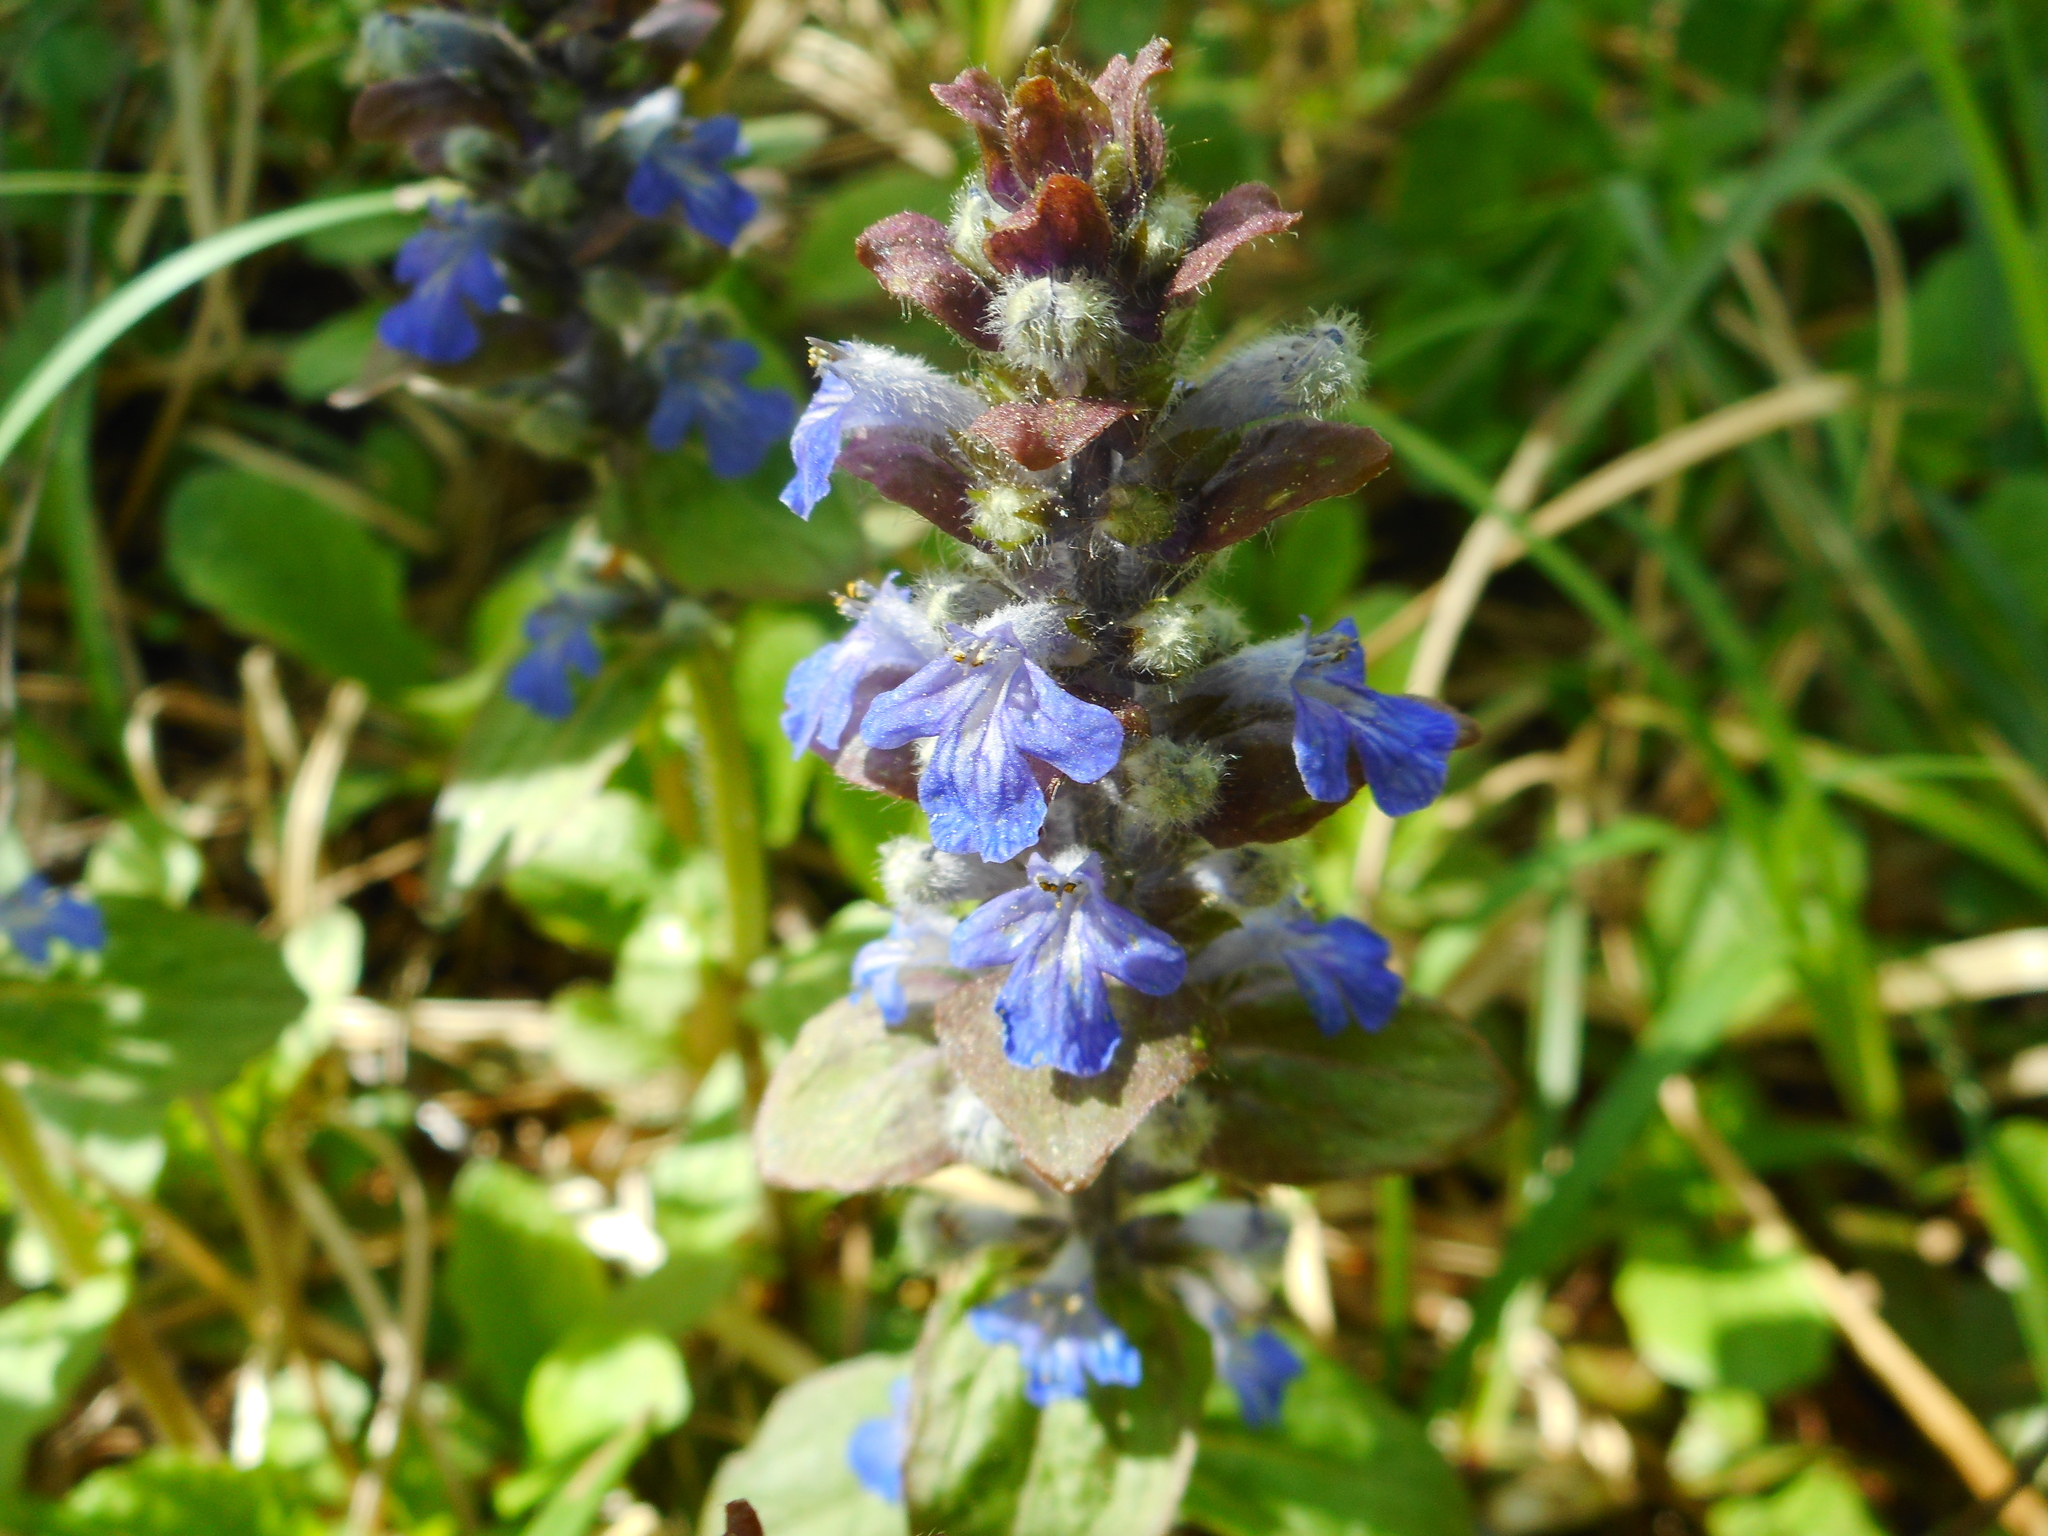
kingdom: Plantae
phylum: Tracheophyta
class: Magnoliopsida
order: Lamiales
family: Lamiaceae
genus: Ajuga
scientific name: Ajuga reptans
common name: Bugle
